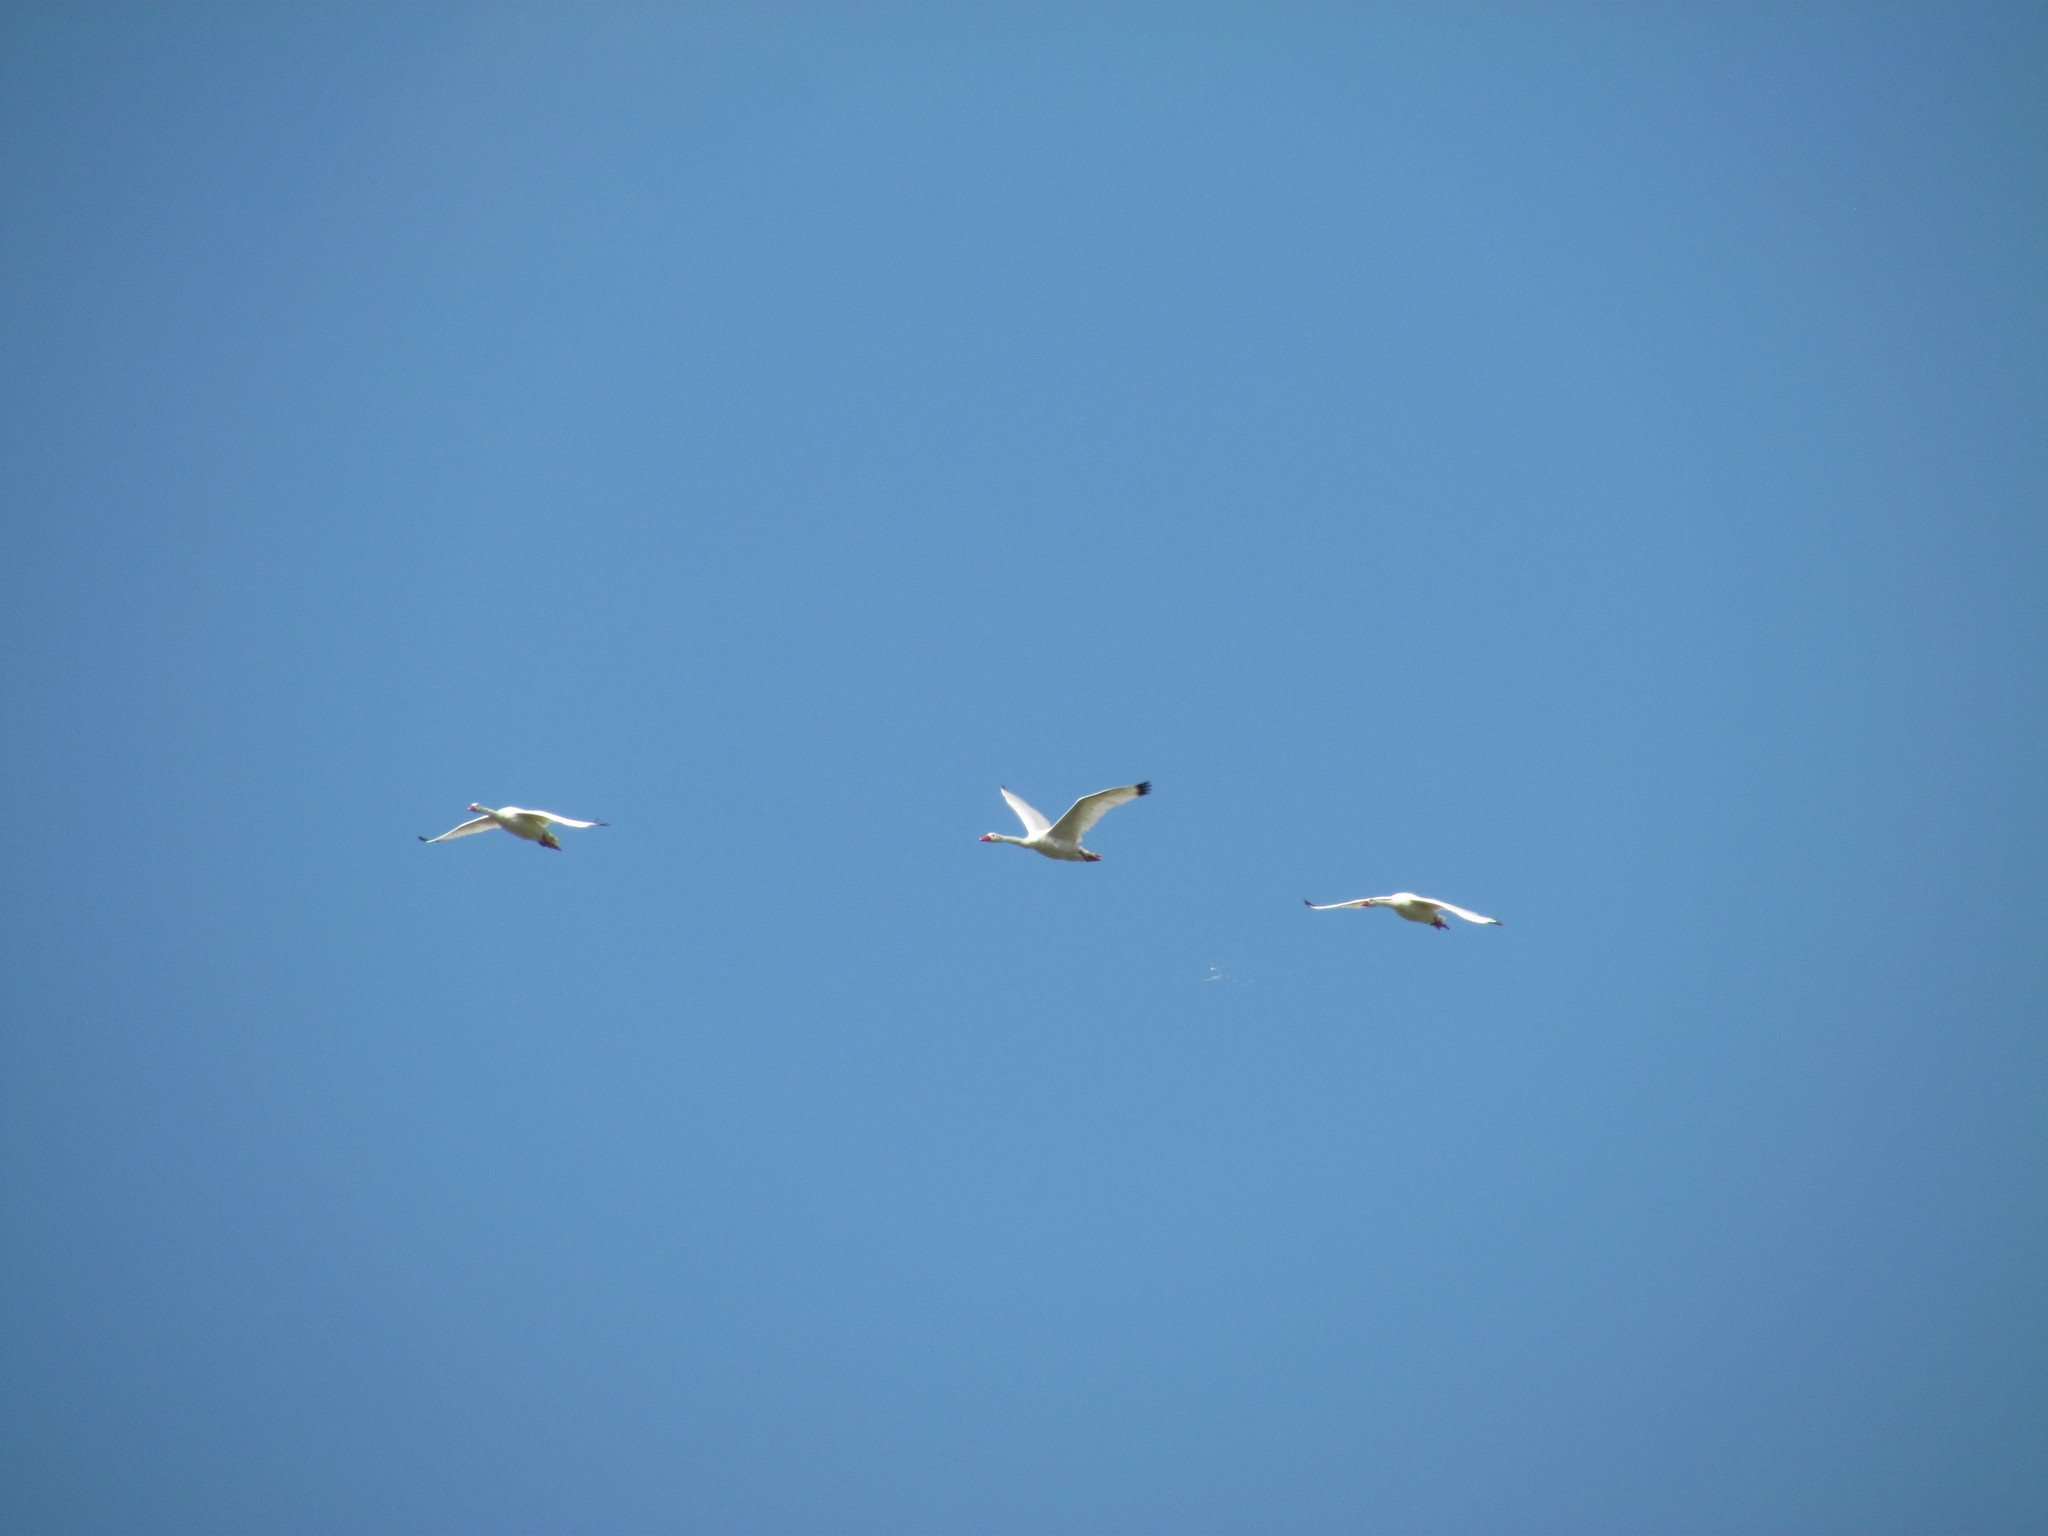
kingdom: Animalia
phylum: Chordata
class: Aves
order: Anseriformes
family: Anatidae
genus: Coscoroba
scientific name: Coscoroba coscoroba
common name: Coscoroba swan
